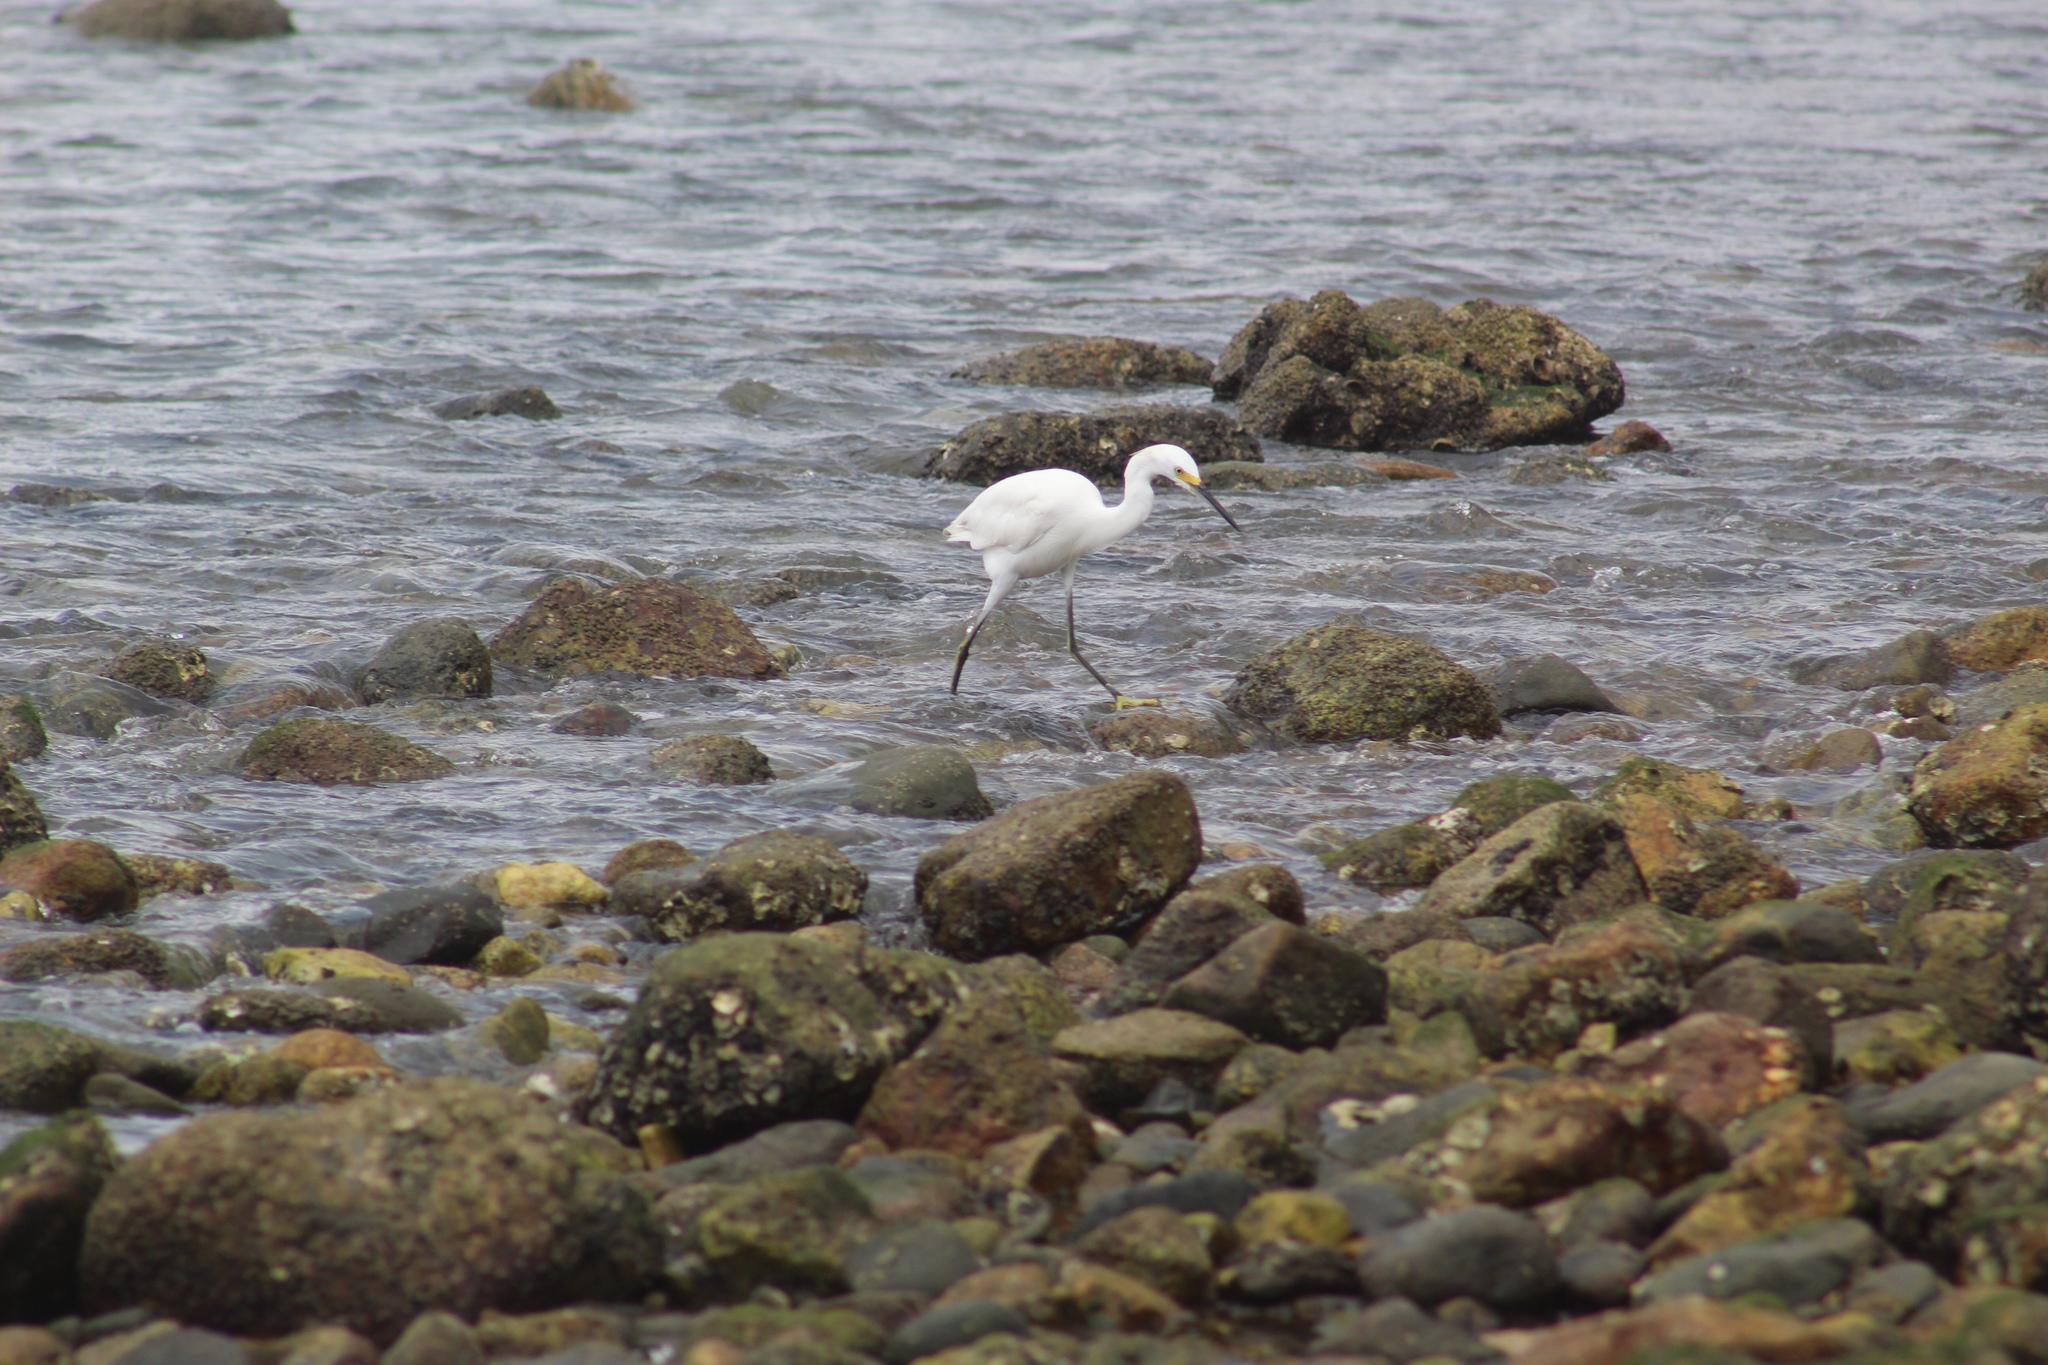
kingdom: Animalia
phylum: Chordata
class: Aves
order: Pelecaniformes
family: Ardeidae
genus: Egretta
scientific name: Egretta thula
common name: Snowy egret
